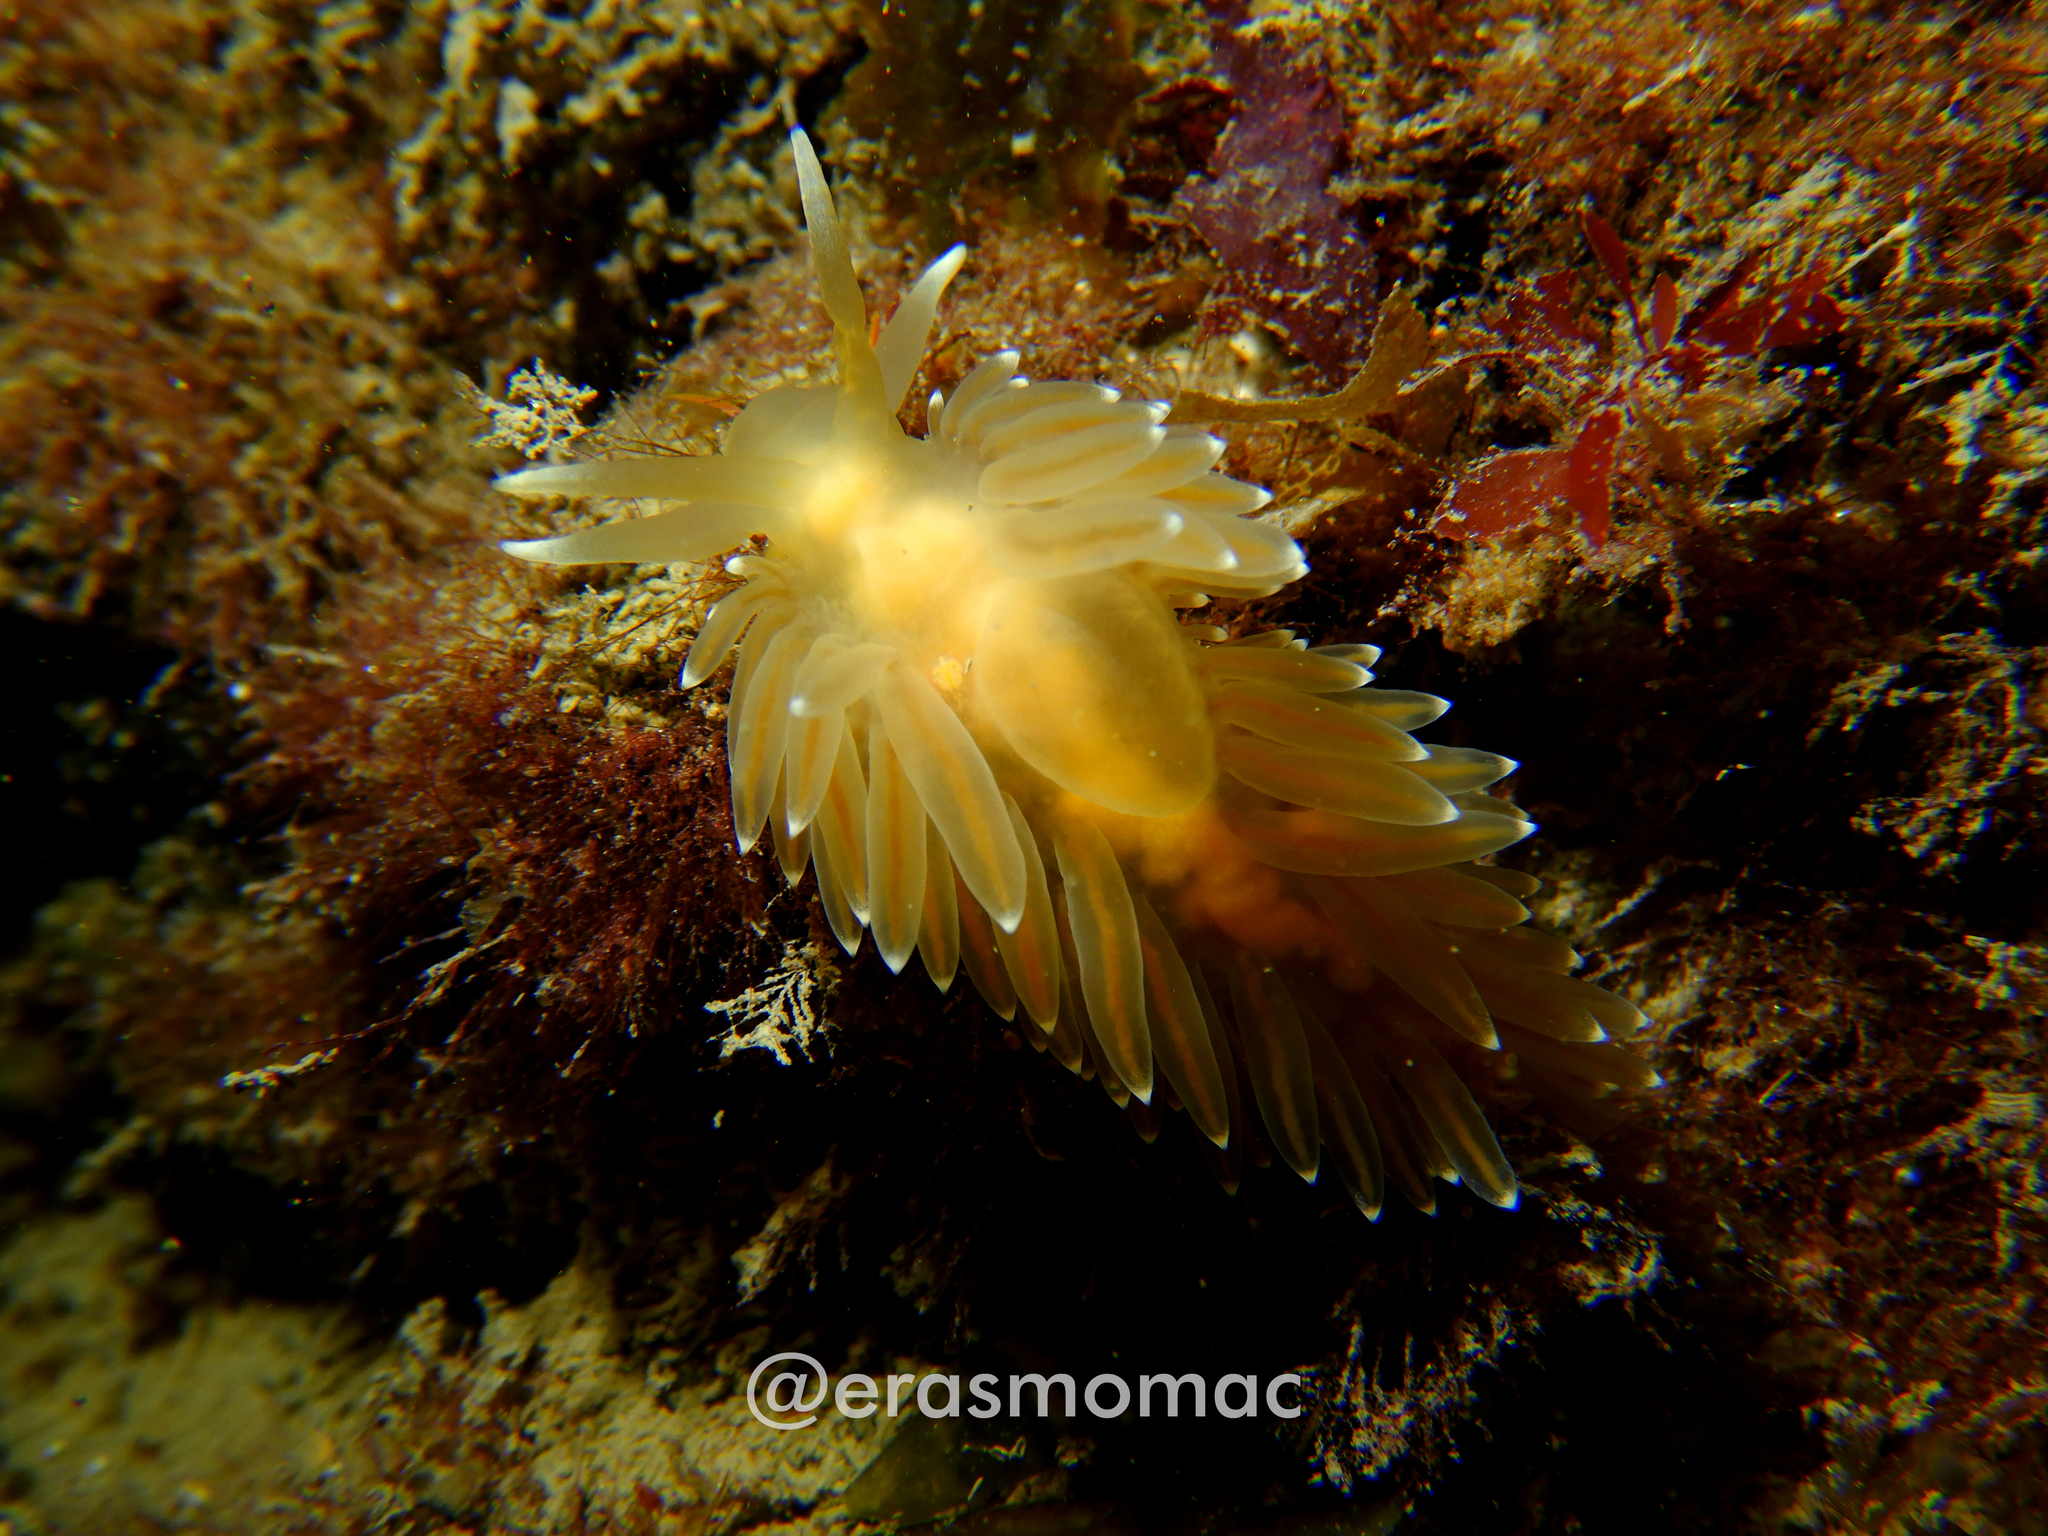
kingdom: Animalia
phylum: Mollusca
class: Gastropoda
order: Nudibranchia
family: Coryphellidae
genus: Coryphella
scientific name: Coryphella falklandica
